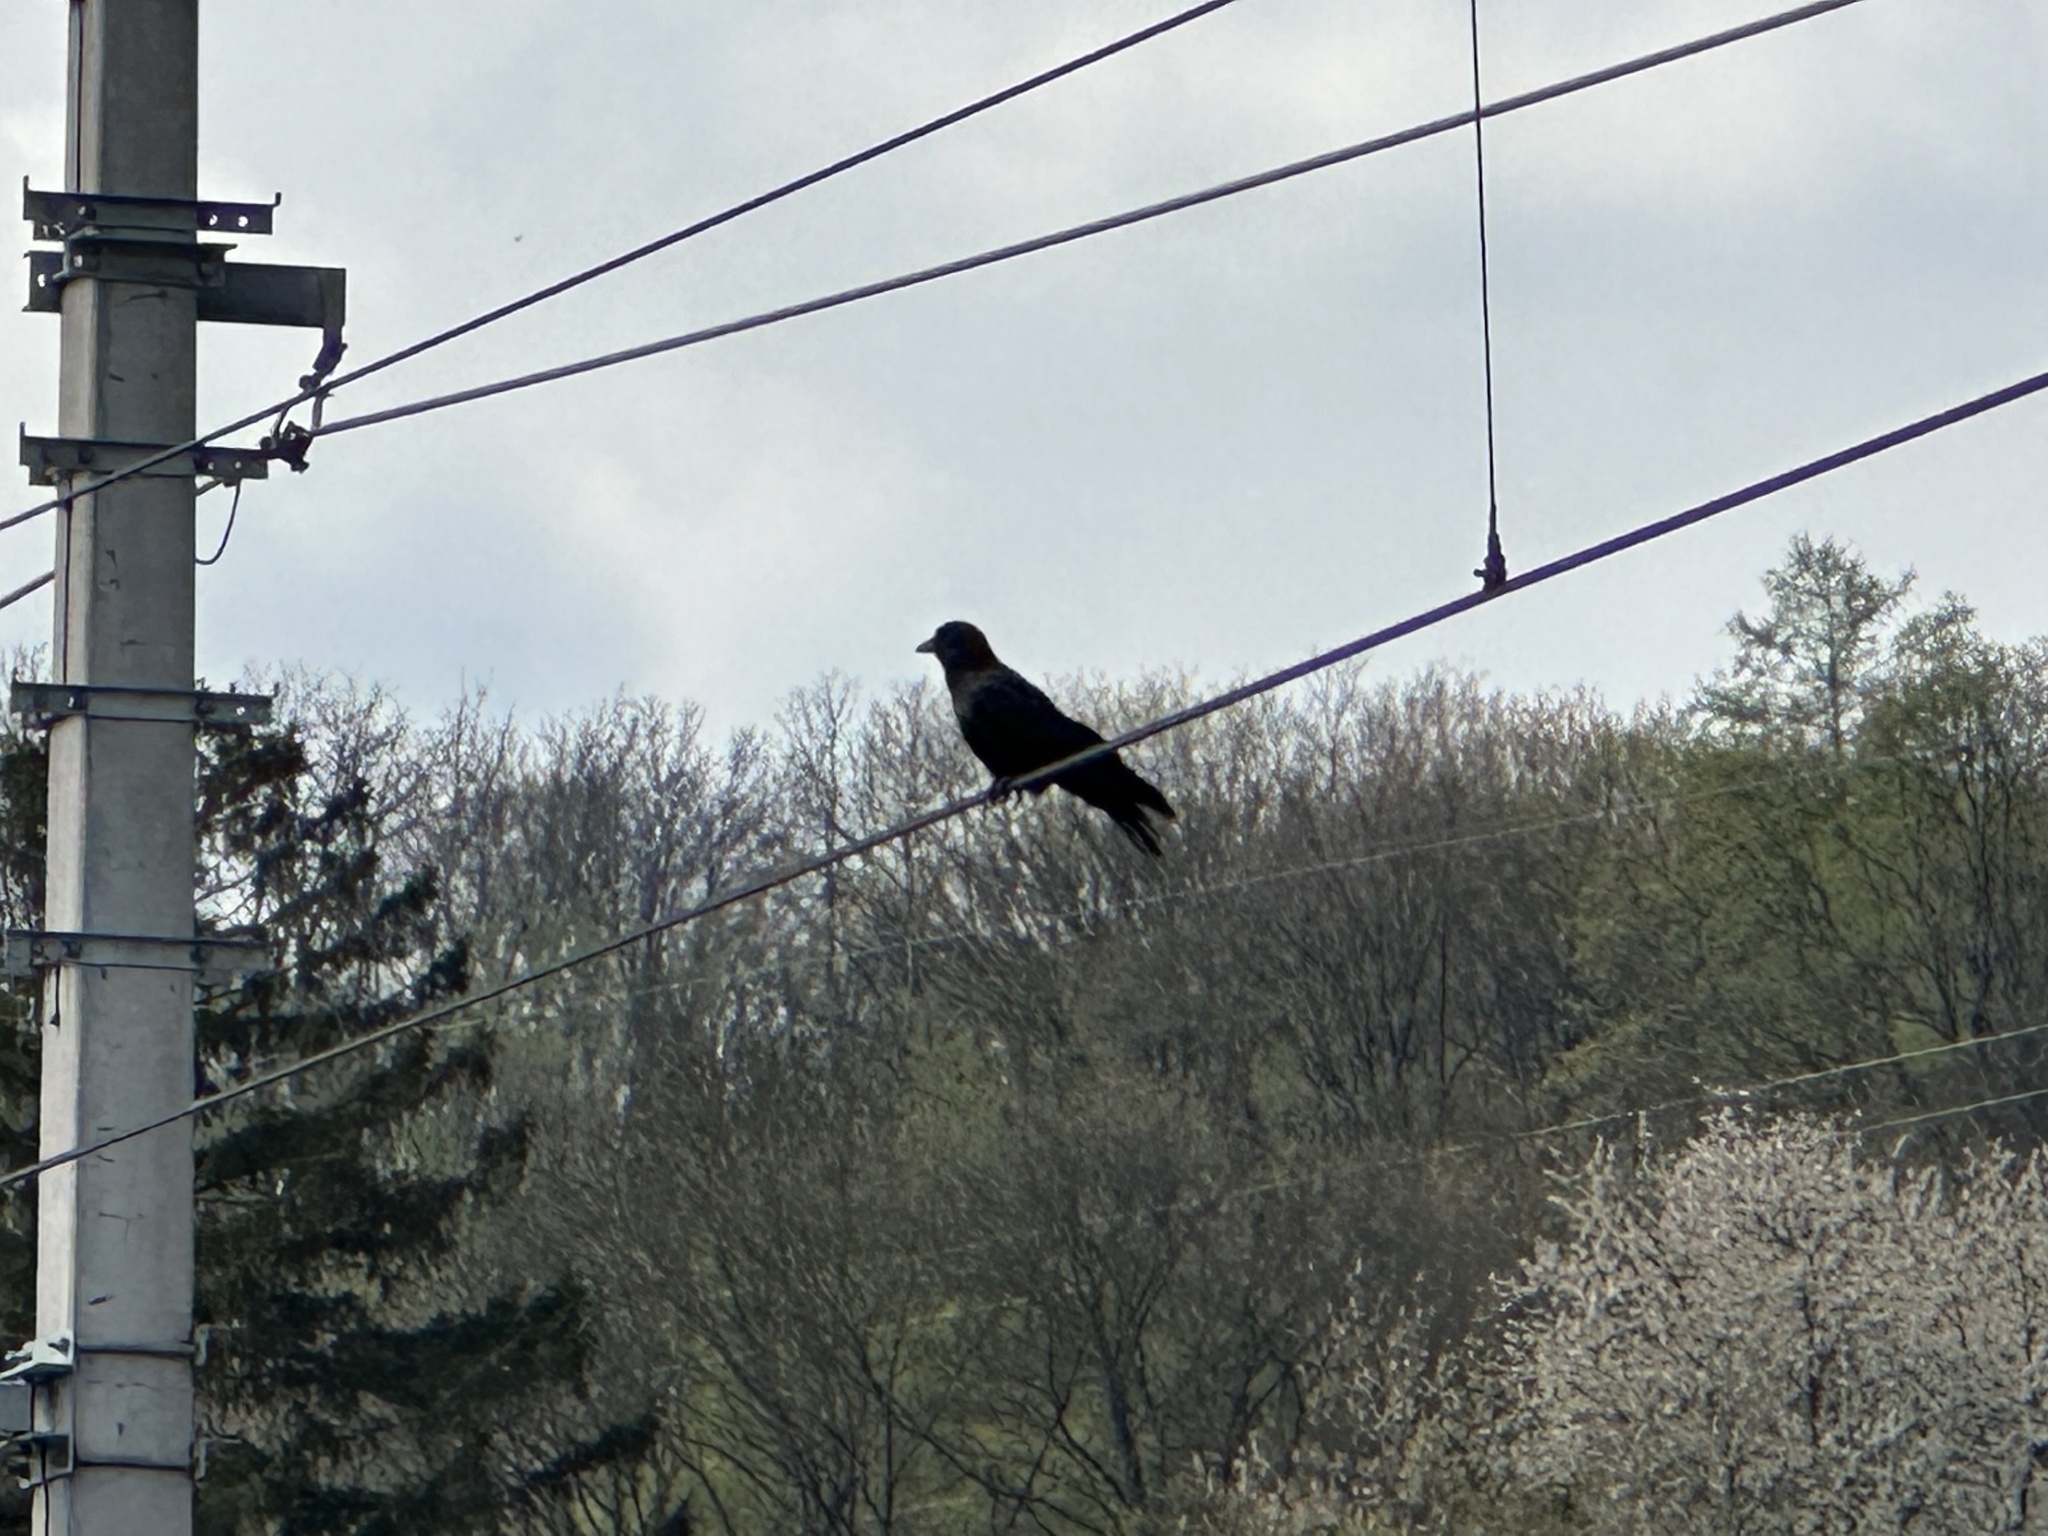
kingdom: Animalia
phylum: Chordata
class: Aves
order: Passeriformes
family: Corvidae
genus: Corvus
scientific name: Corvus corone
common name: Carrion crow
